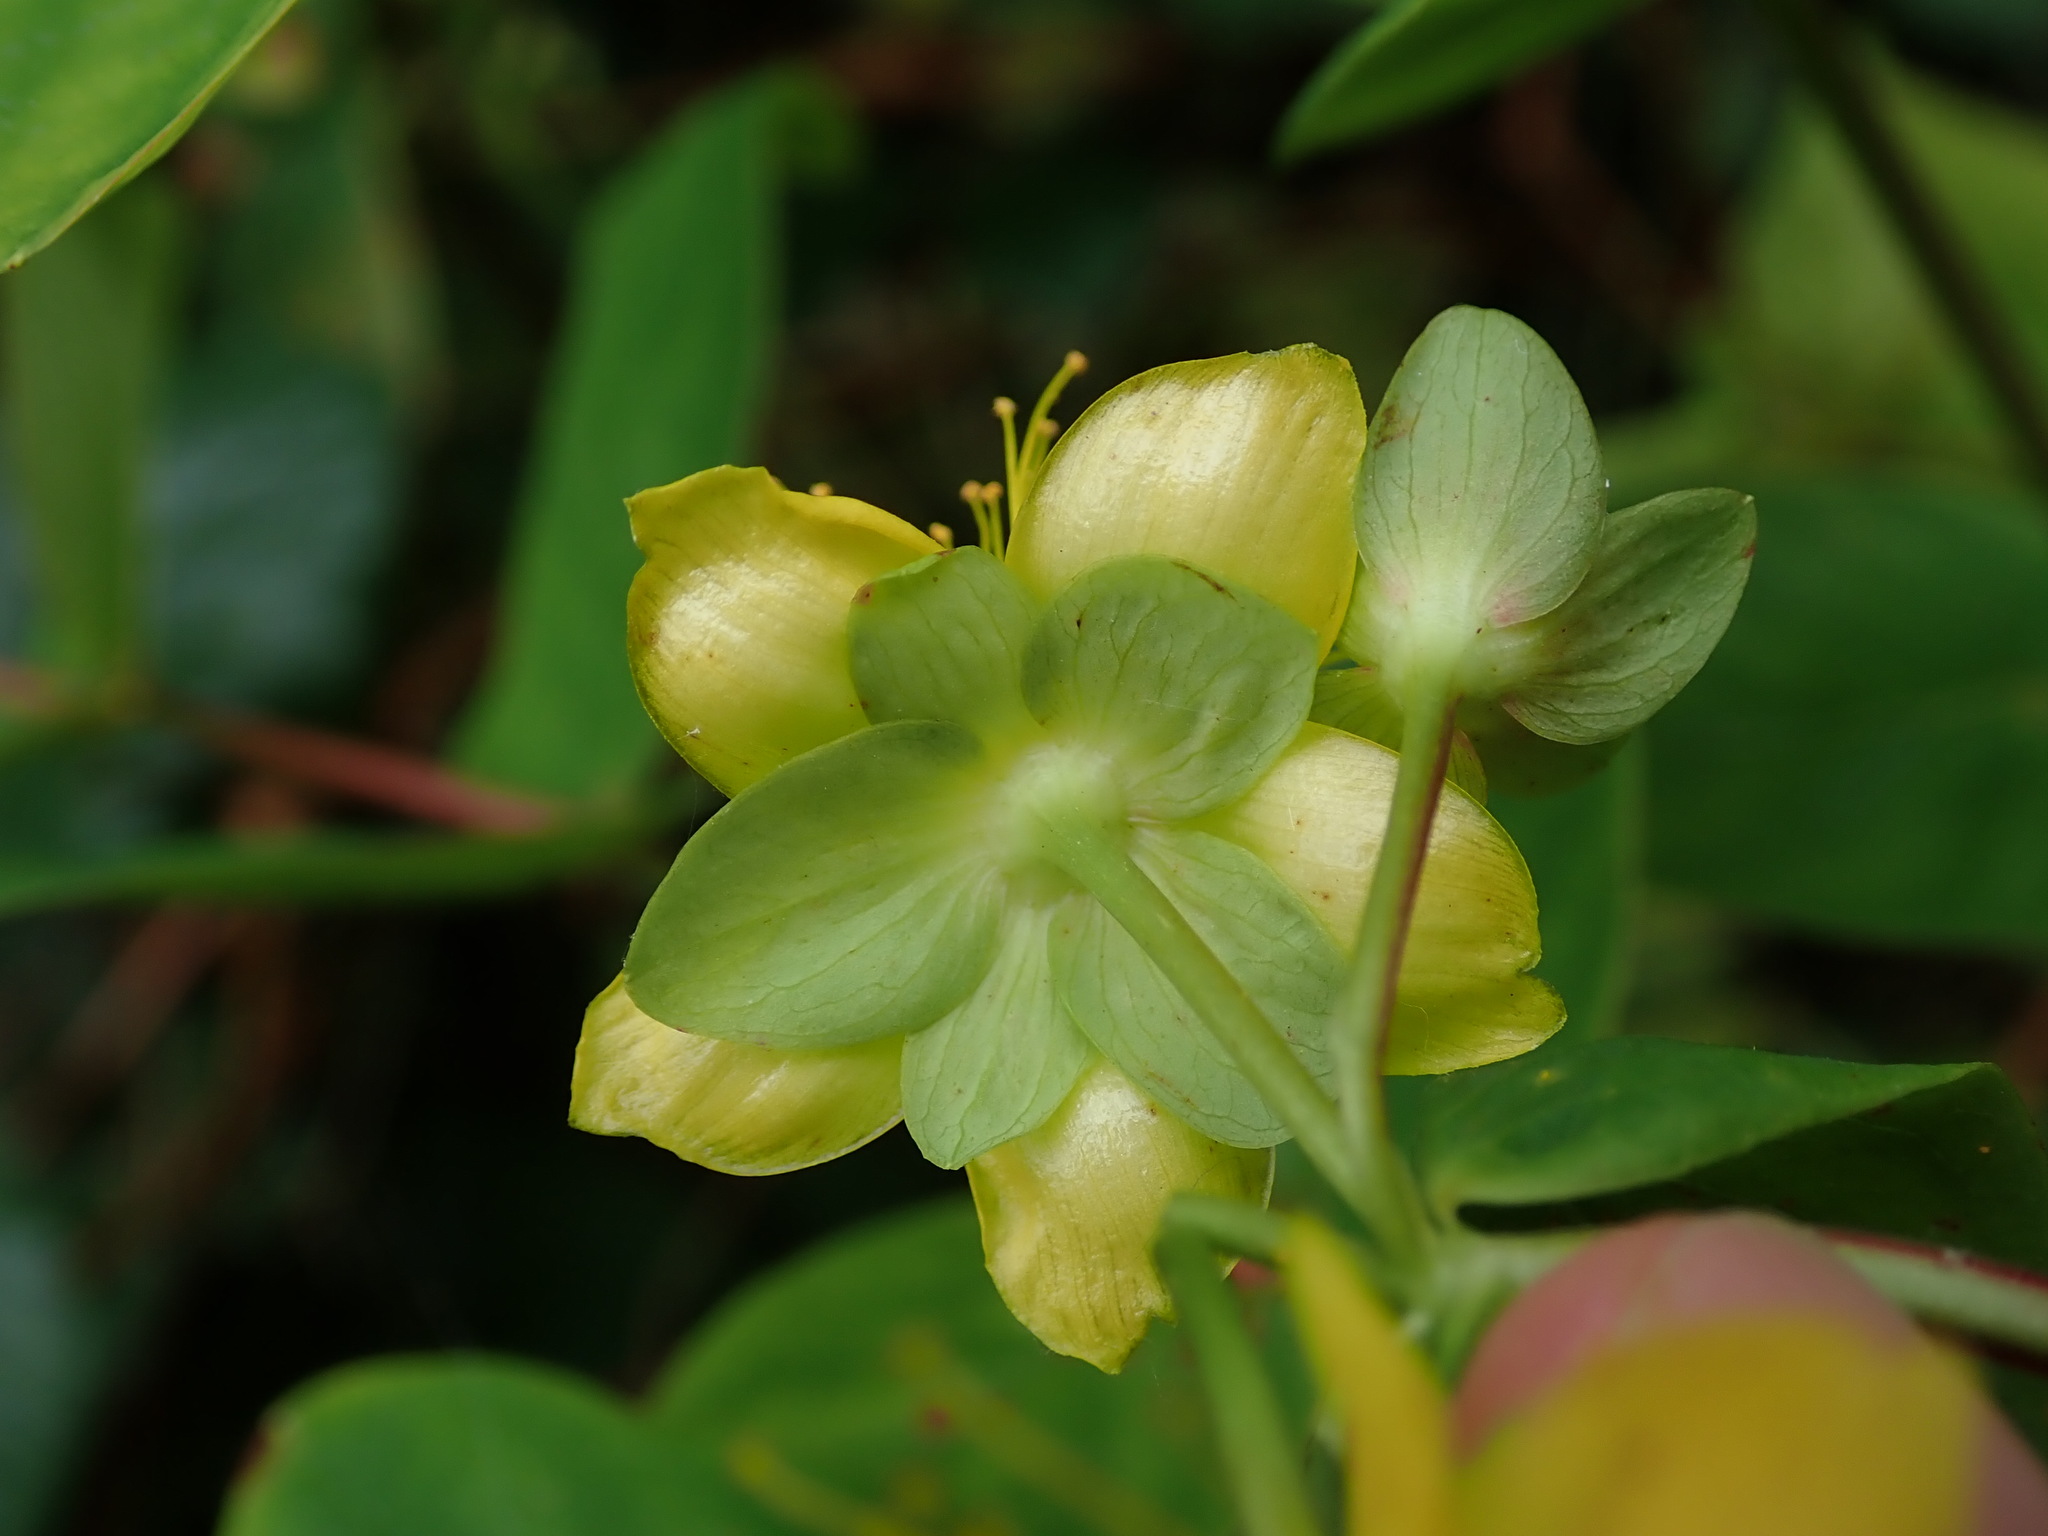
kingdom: Plantae
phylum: Tracheophyta
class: Magnoliopsida
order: Malpighiales
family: Hypericaceae
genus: Hypericum
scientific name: Hypericum androsaemum
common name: Sweet-amber
